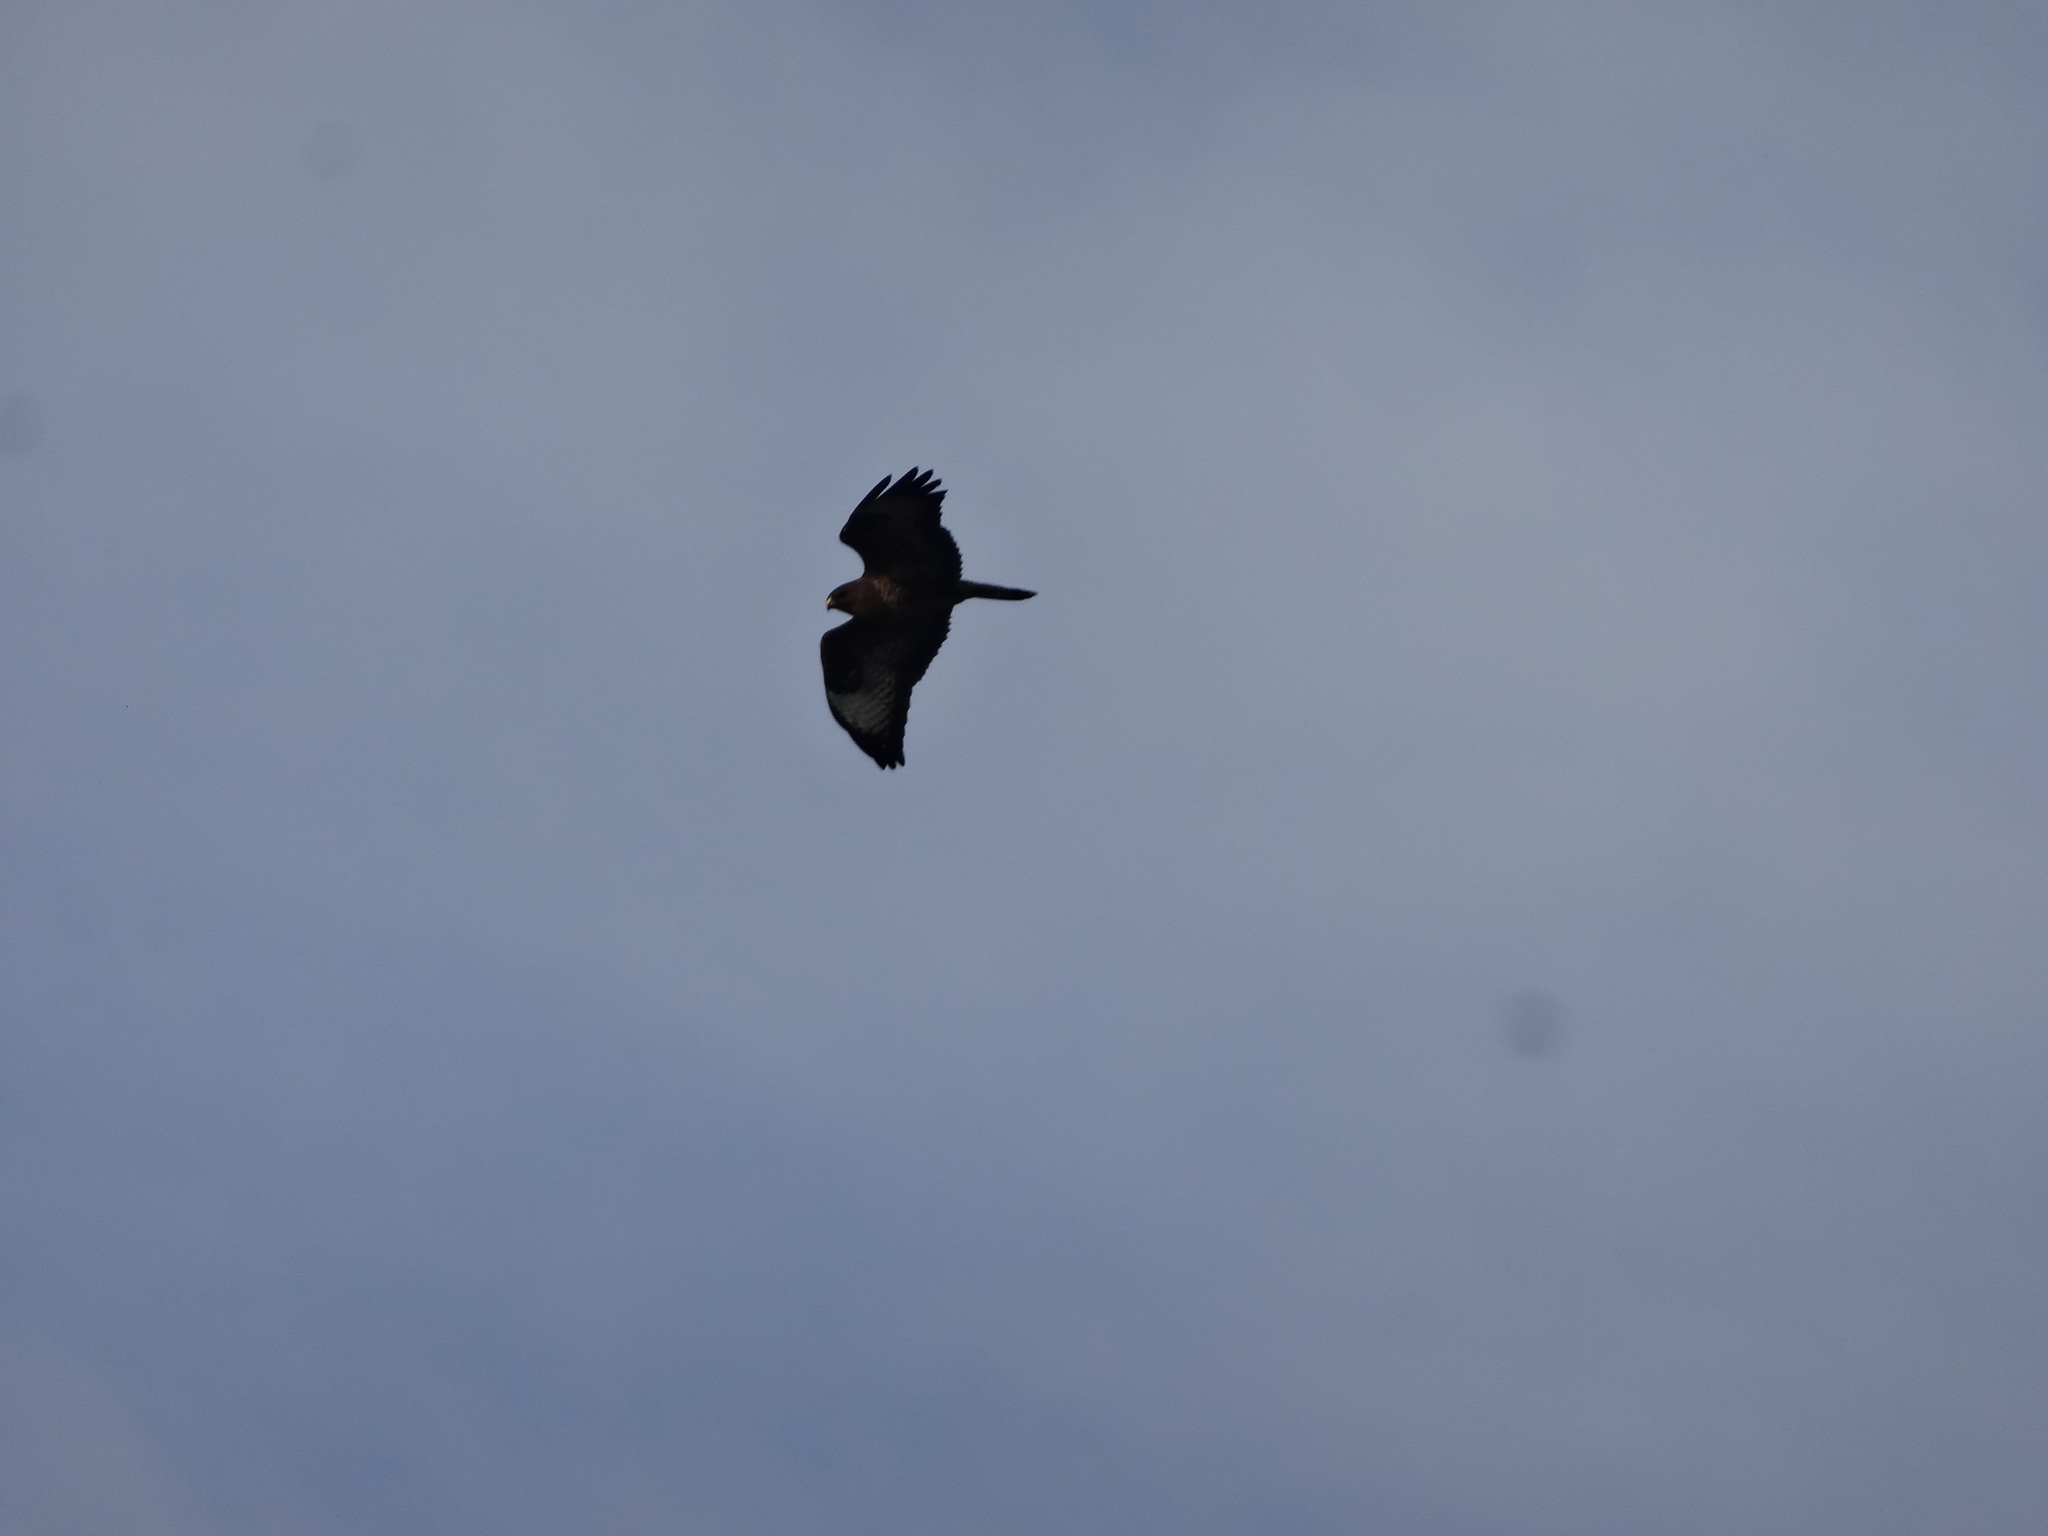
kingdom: Animalia
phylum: Chordata
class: Aves
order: Accipitriformes
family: Accipitridae
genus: Buteo
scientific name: Buteo buteo
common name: Common buzzard
